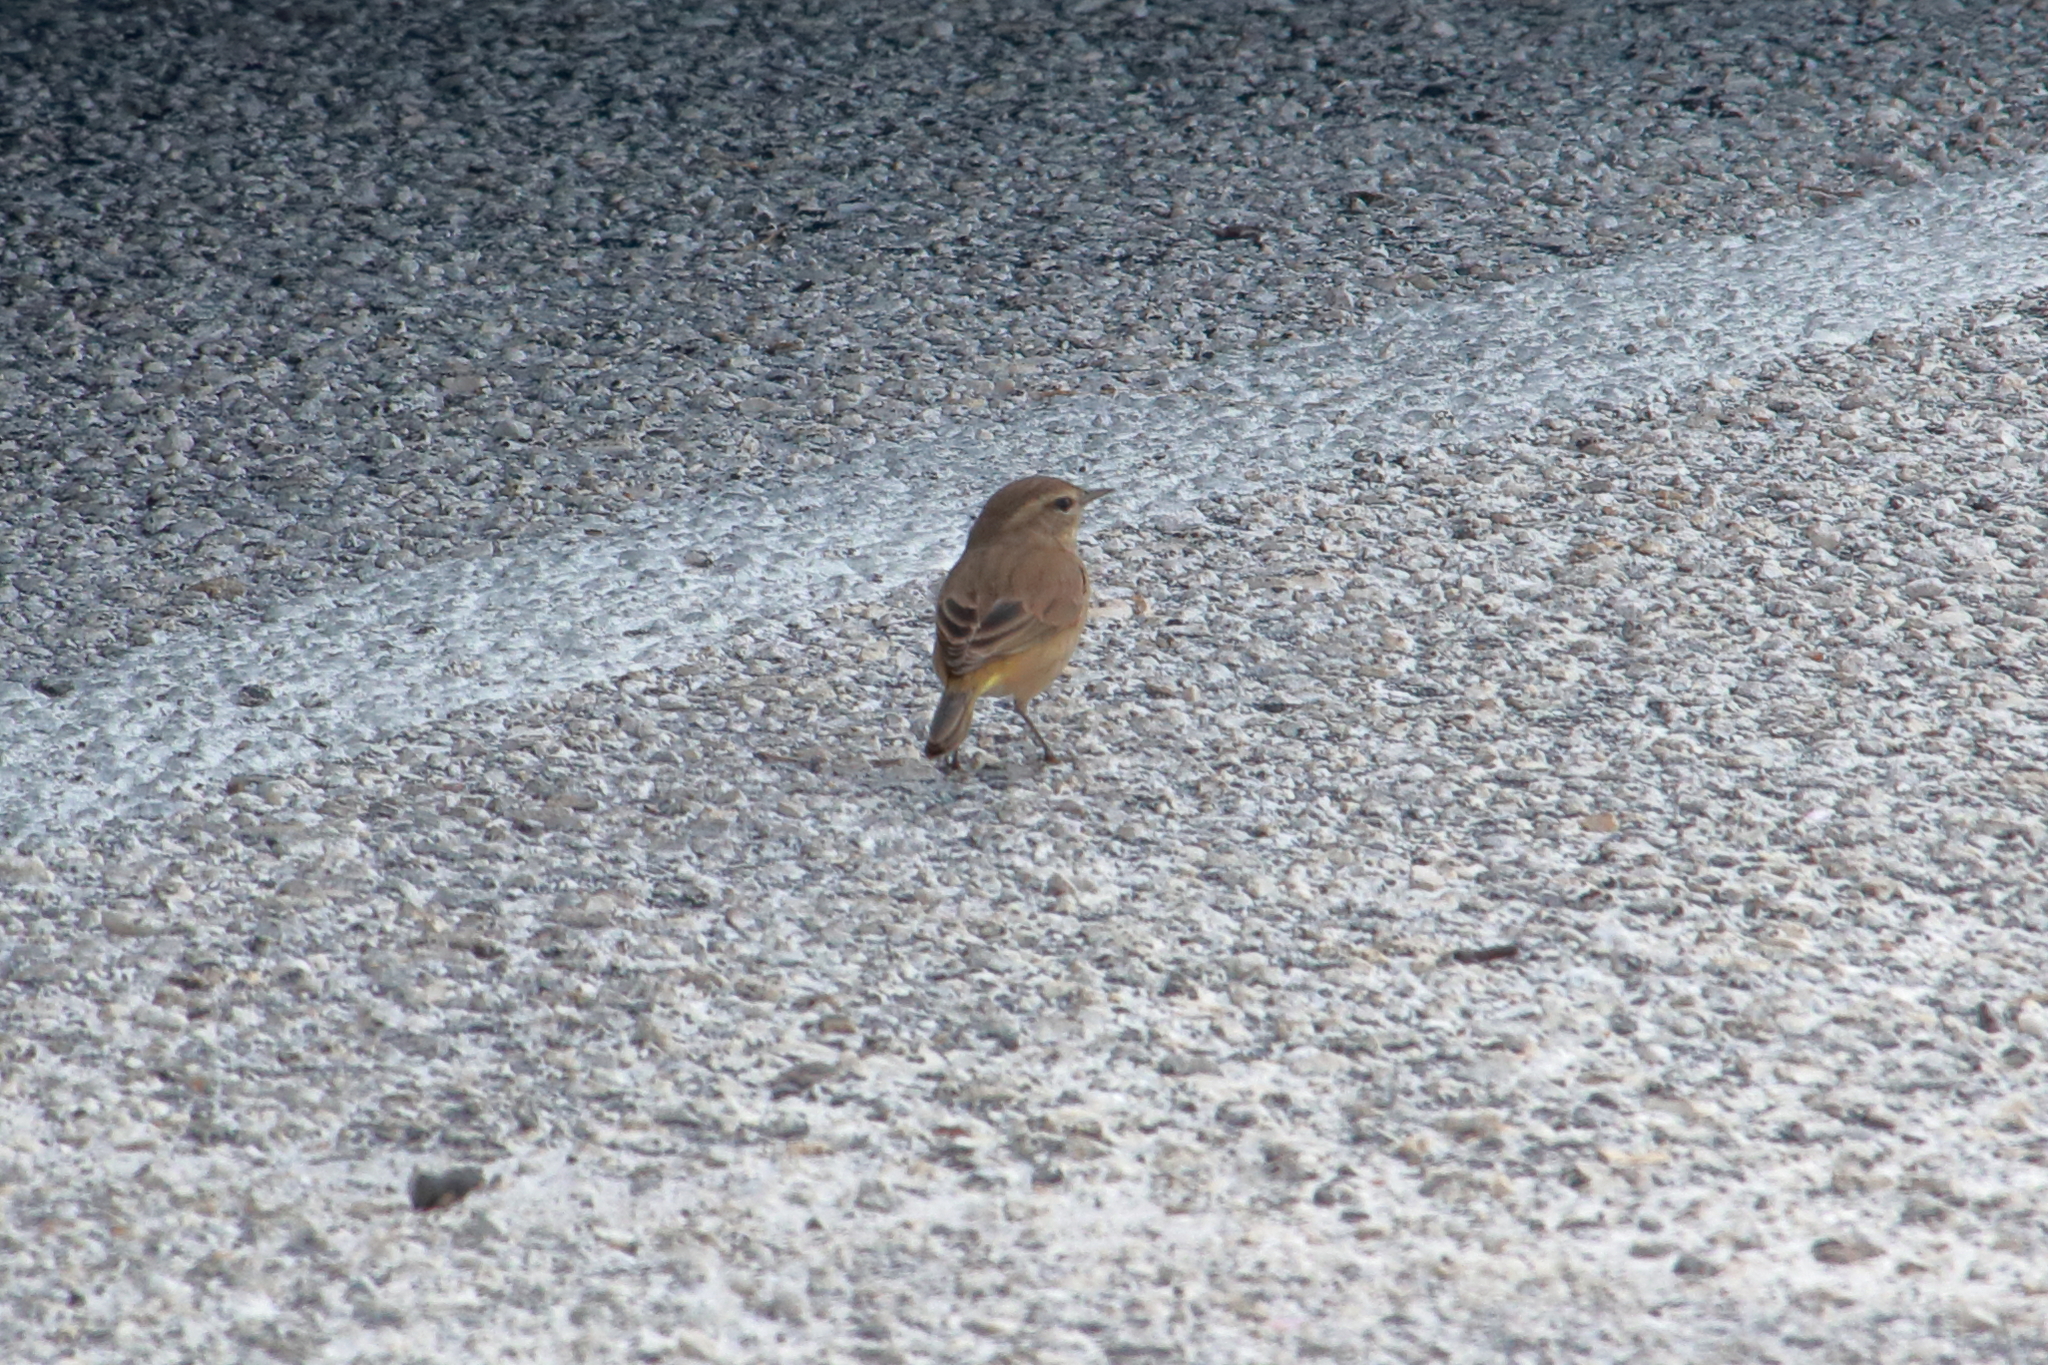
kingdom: Animalia
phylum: Chordata
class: Aves
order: Passeriformes
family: Parulidae
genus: Setophaga
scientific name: Setophaga palmarum
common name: Palm warbler
